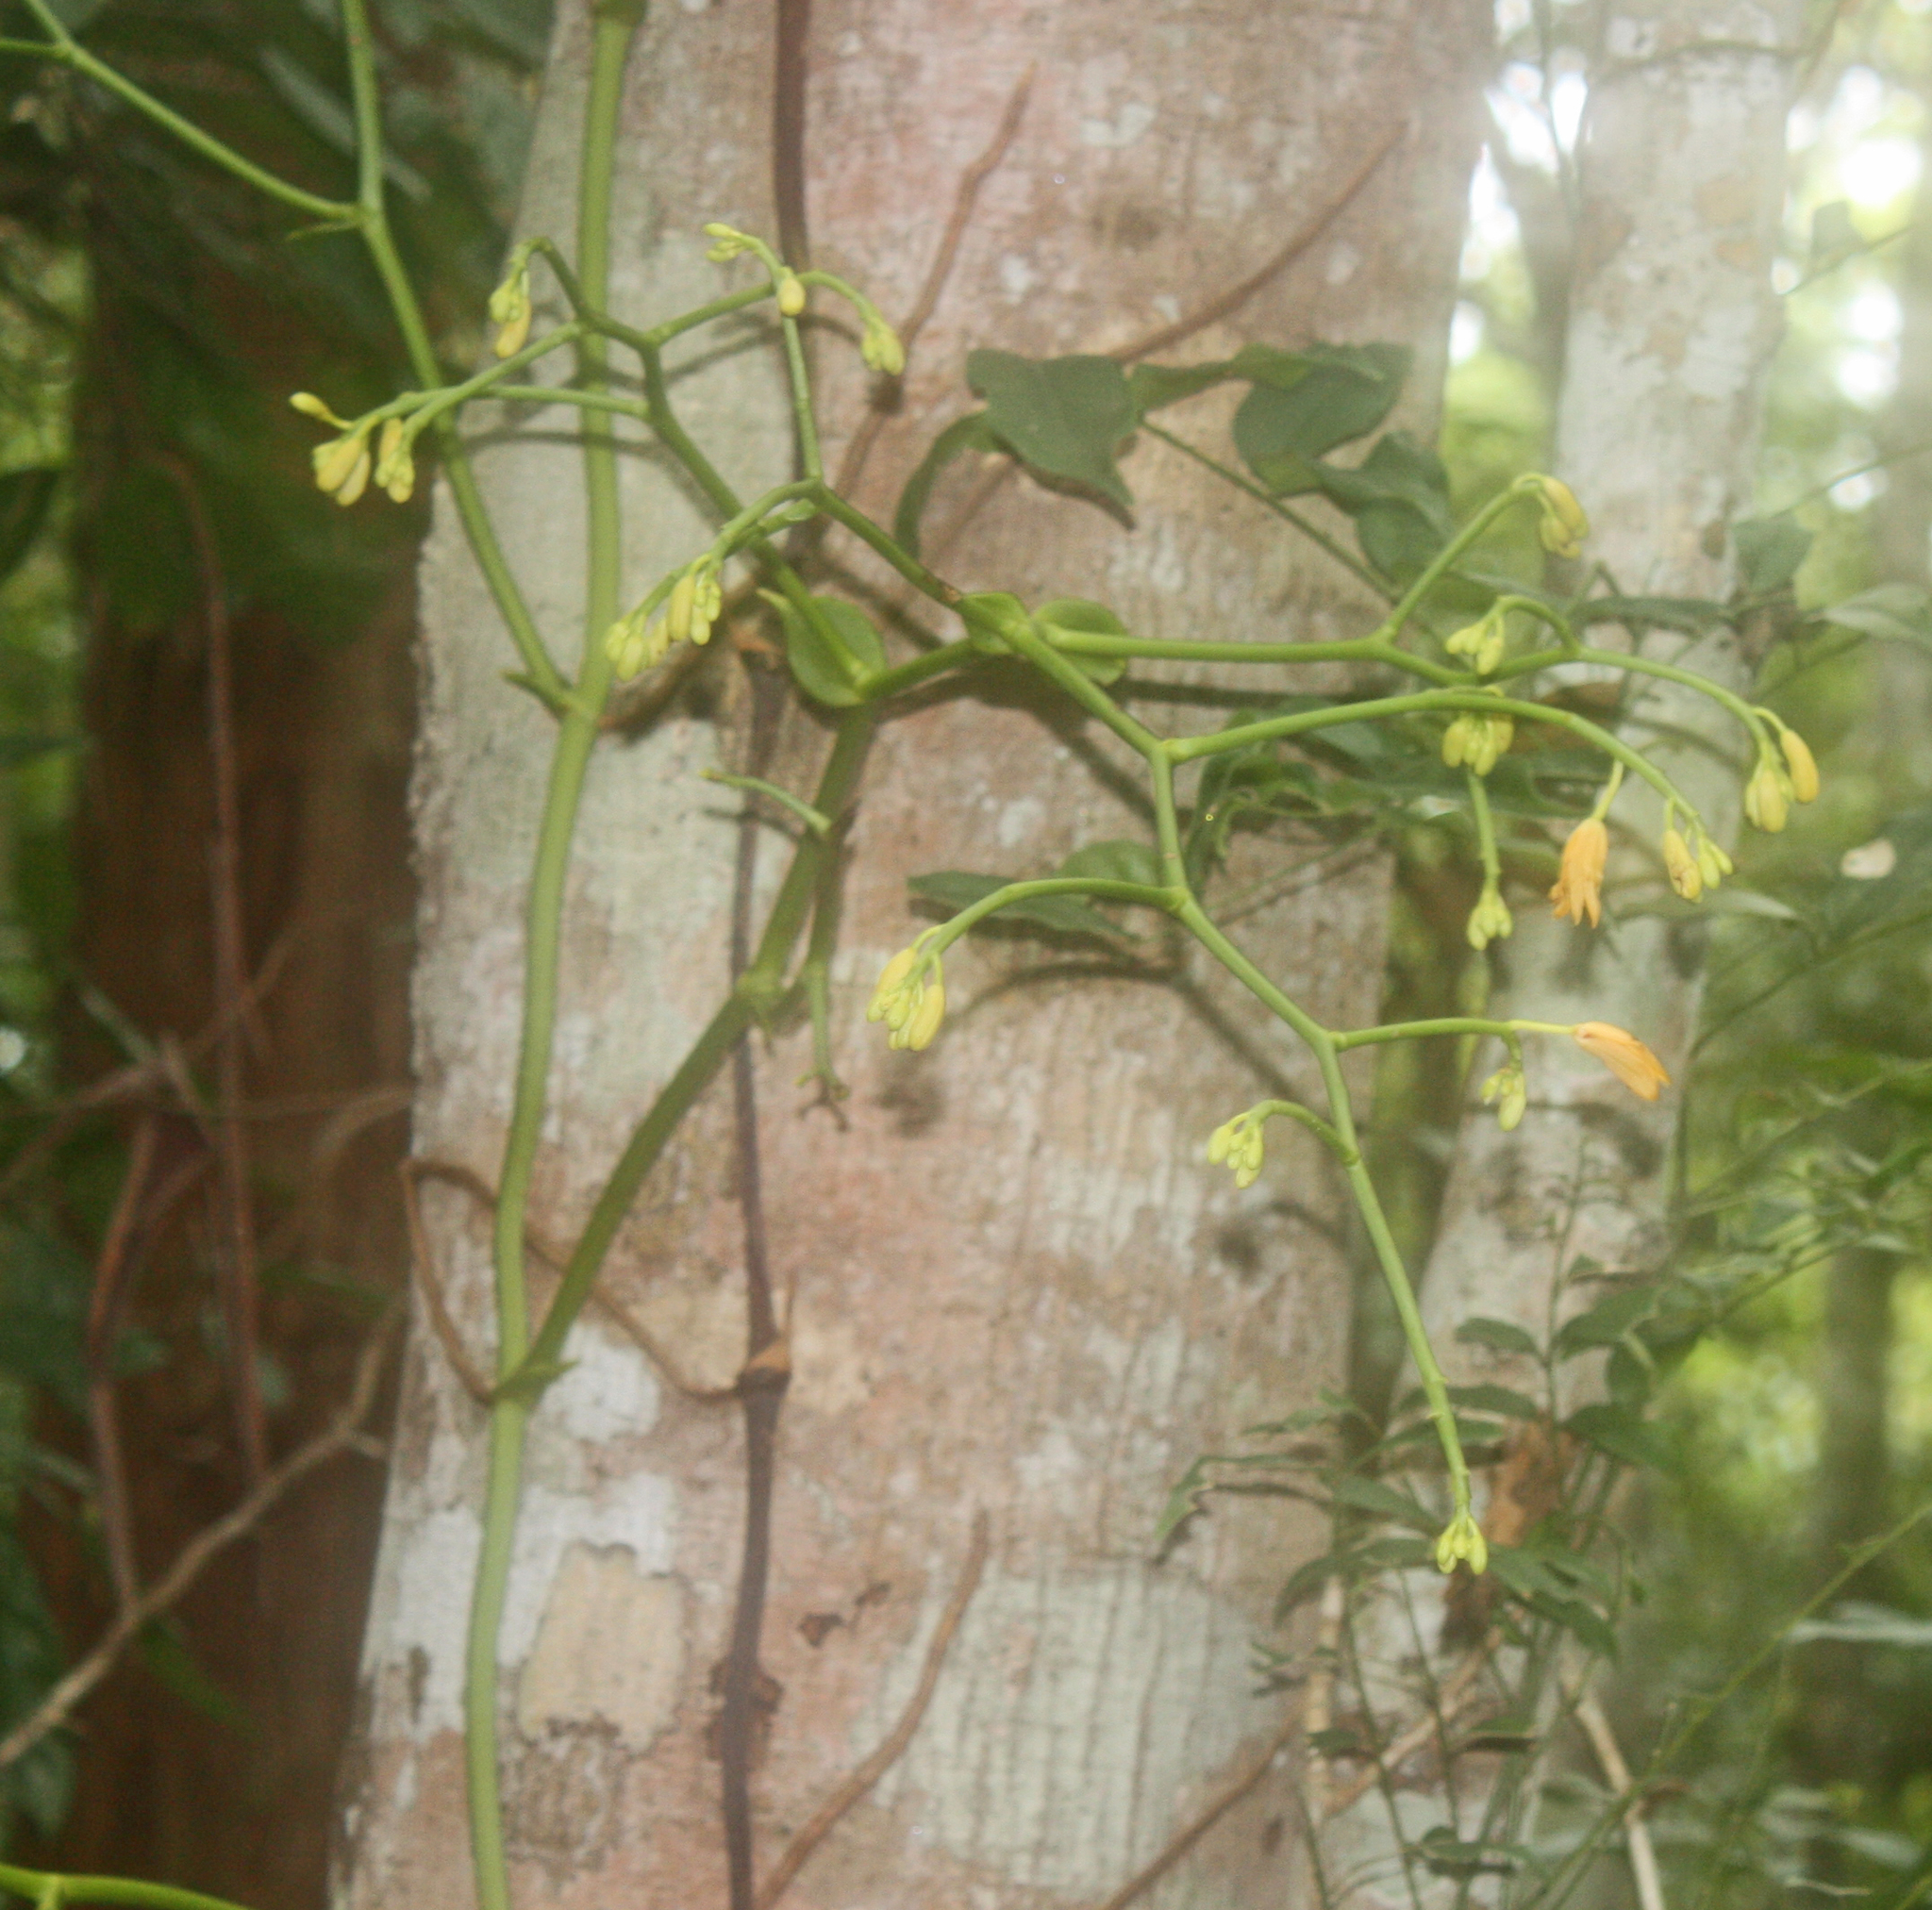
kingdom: Plantae
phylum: Tracheophyta
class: Liliopsida
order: Asparagales
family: Orchidaceae
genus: Pseudovanilla
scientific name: Pseudovanilla foliata
